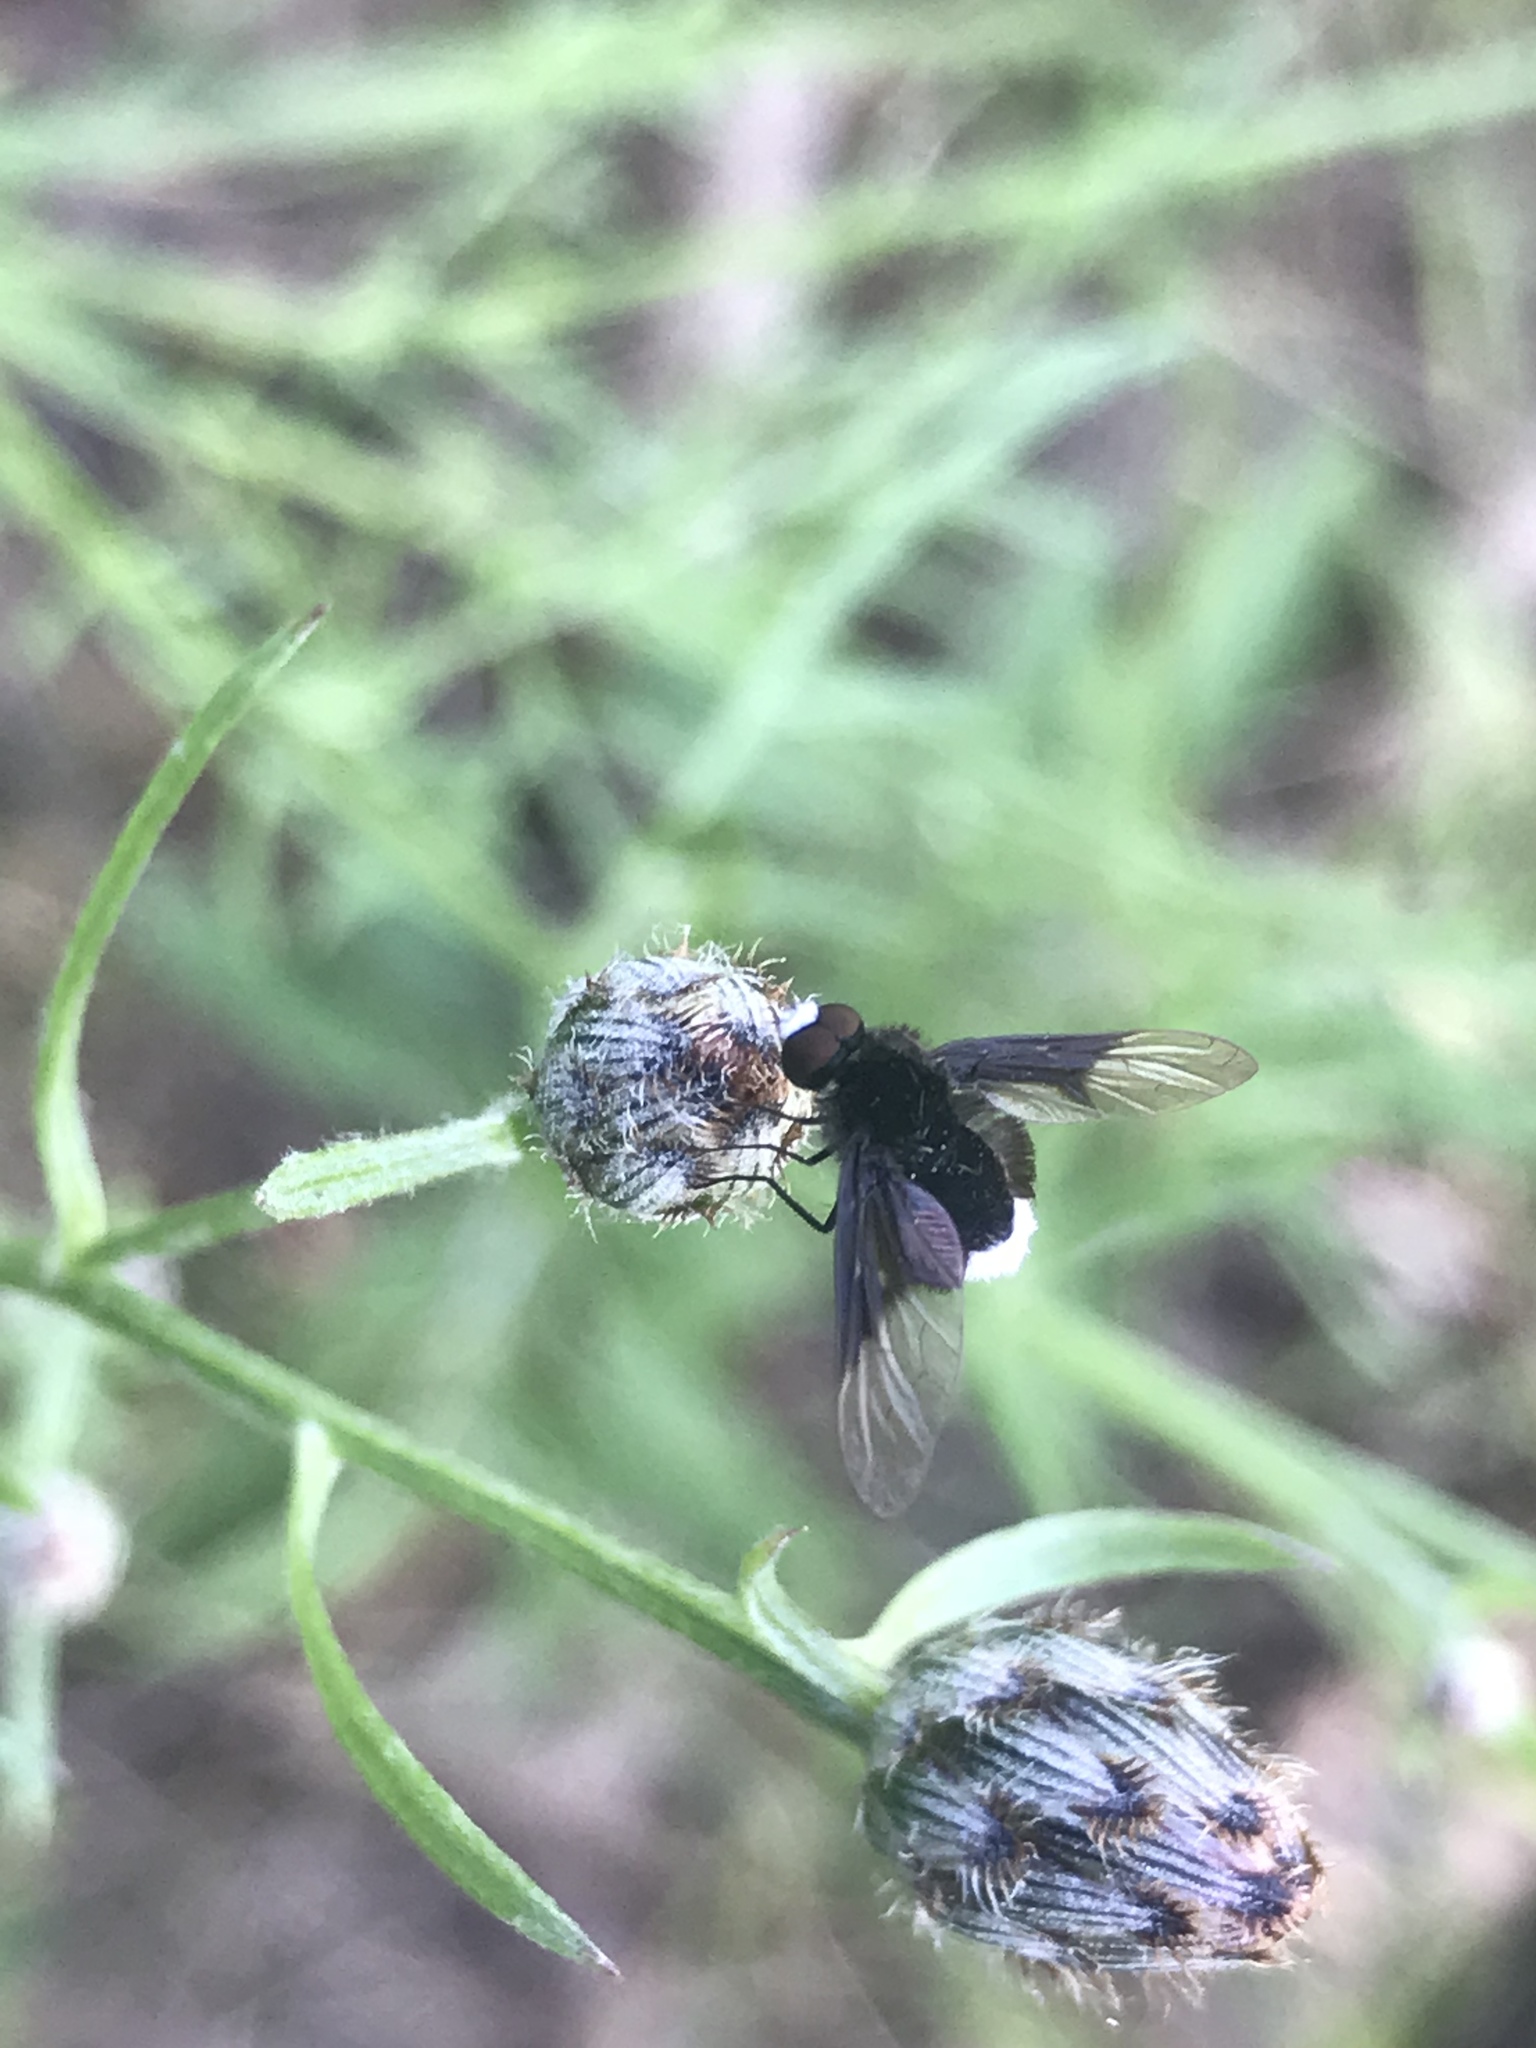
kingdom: Animalia
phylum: Arthropoda
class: Insecta
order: Diptera
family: Bombyliidae
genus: Ogcodocera
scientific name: Ogcodocera leucoprocta
